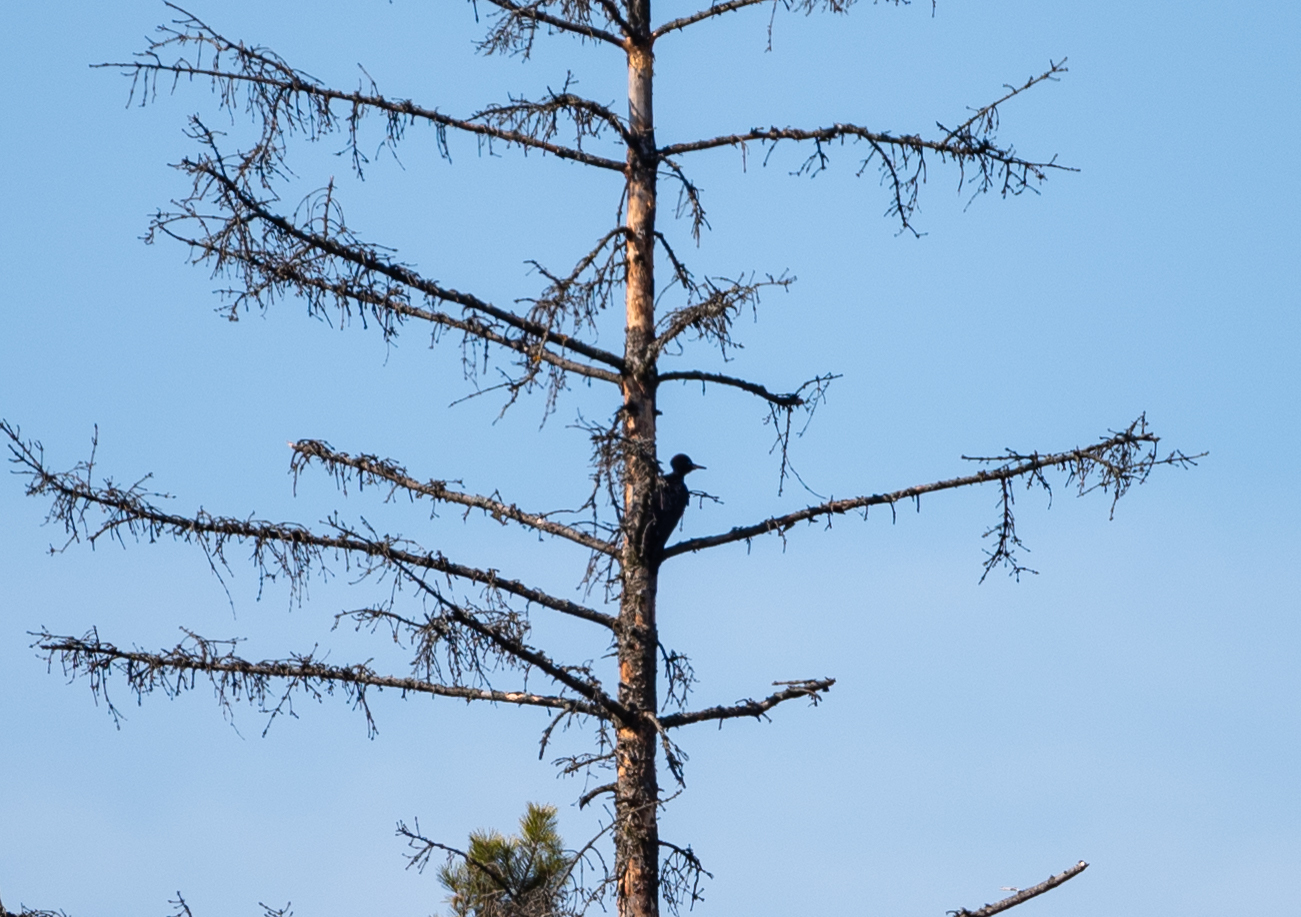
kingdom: Animalia
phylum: Chordata
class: Aves
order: Piciformes
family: Picidae
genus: Dryocopus
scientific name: Dryocopus martius
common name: Black woodpecker
